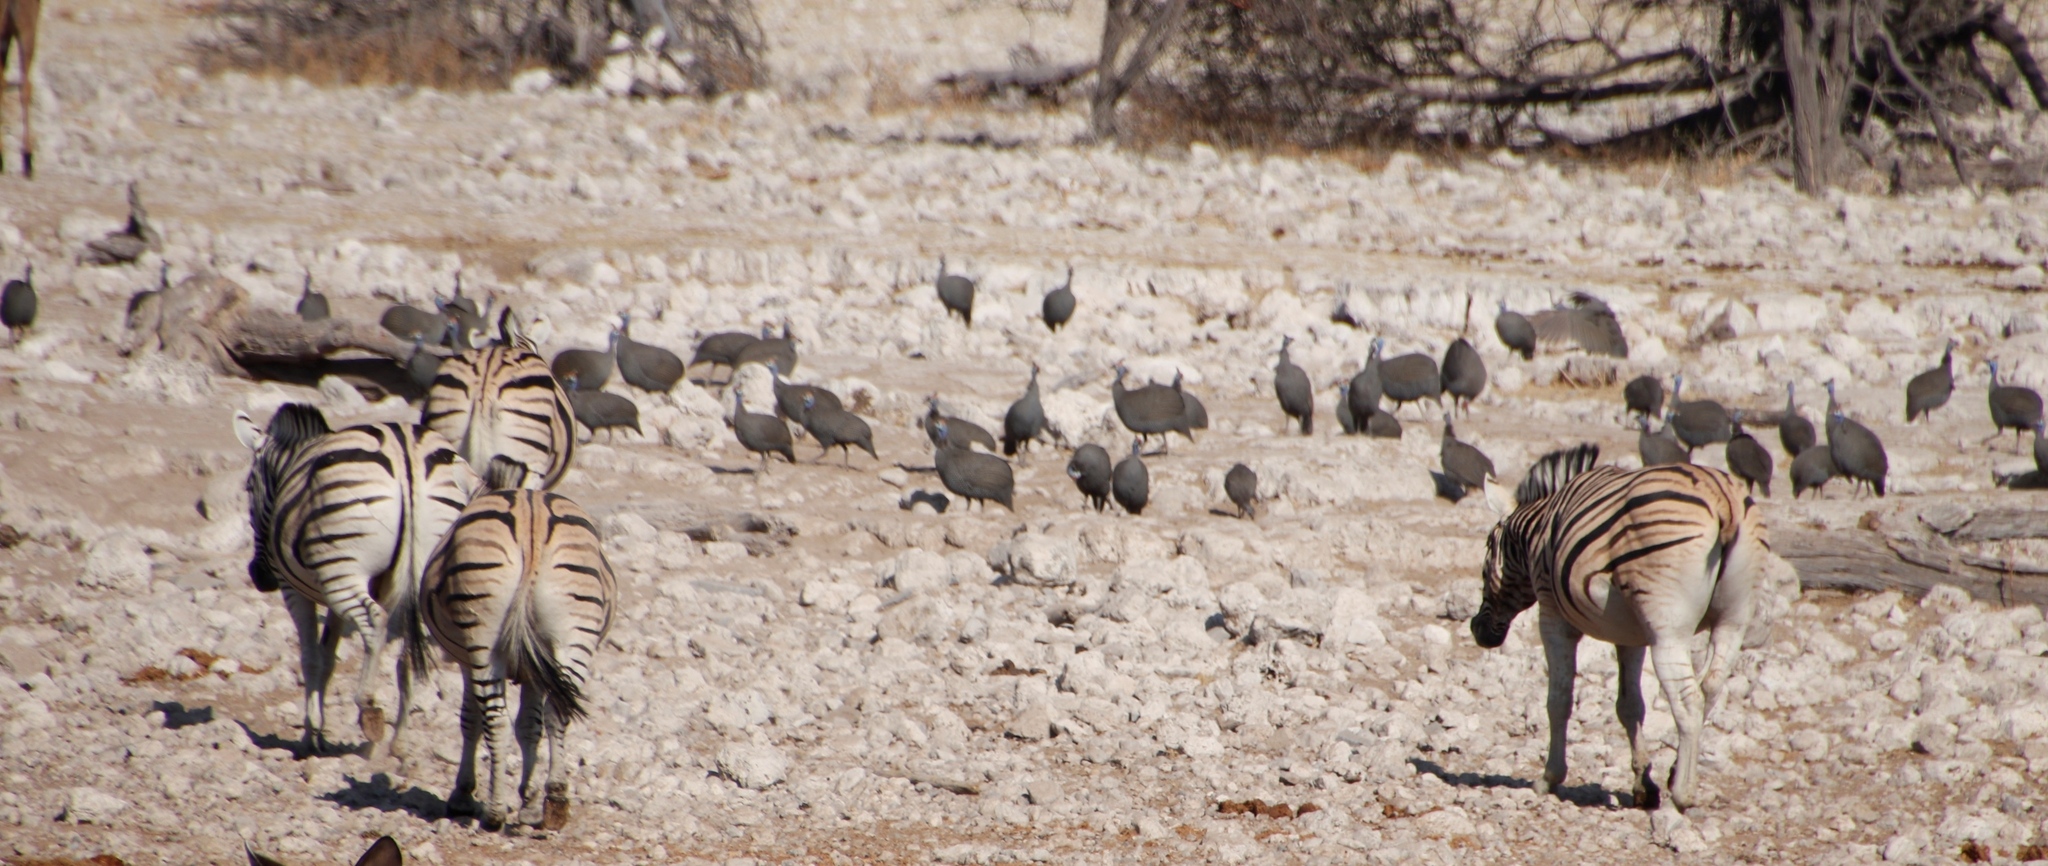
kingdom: Animalia
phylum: Chordata
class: Mammalia
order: Perissodactyla
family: Equidae
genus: Equus
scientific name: Equus quagga
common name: Plains zebra
